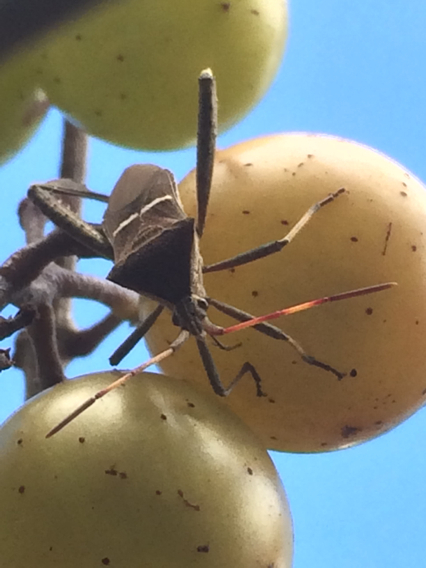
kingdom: Animalia
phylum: Arthropoda
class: Insecta
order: Hemiptera
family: Coreidae
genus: Leptoglossus
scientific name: Leptoglossus phyllopus
